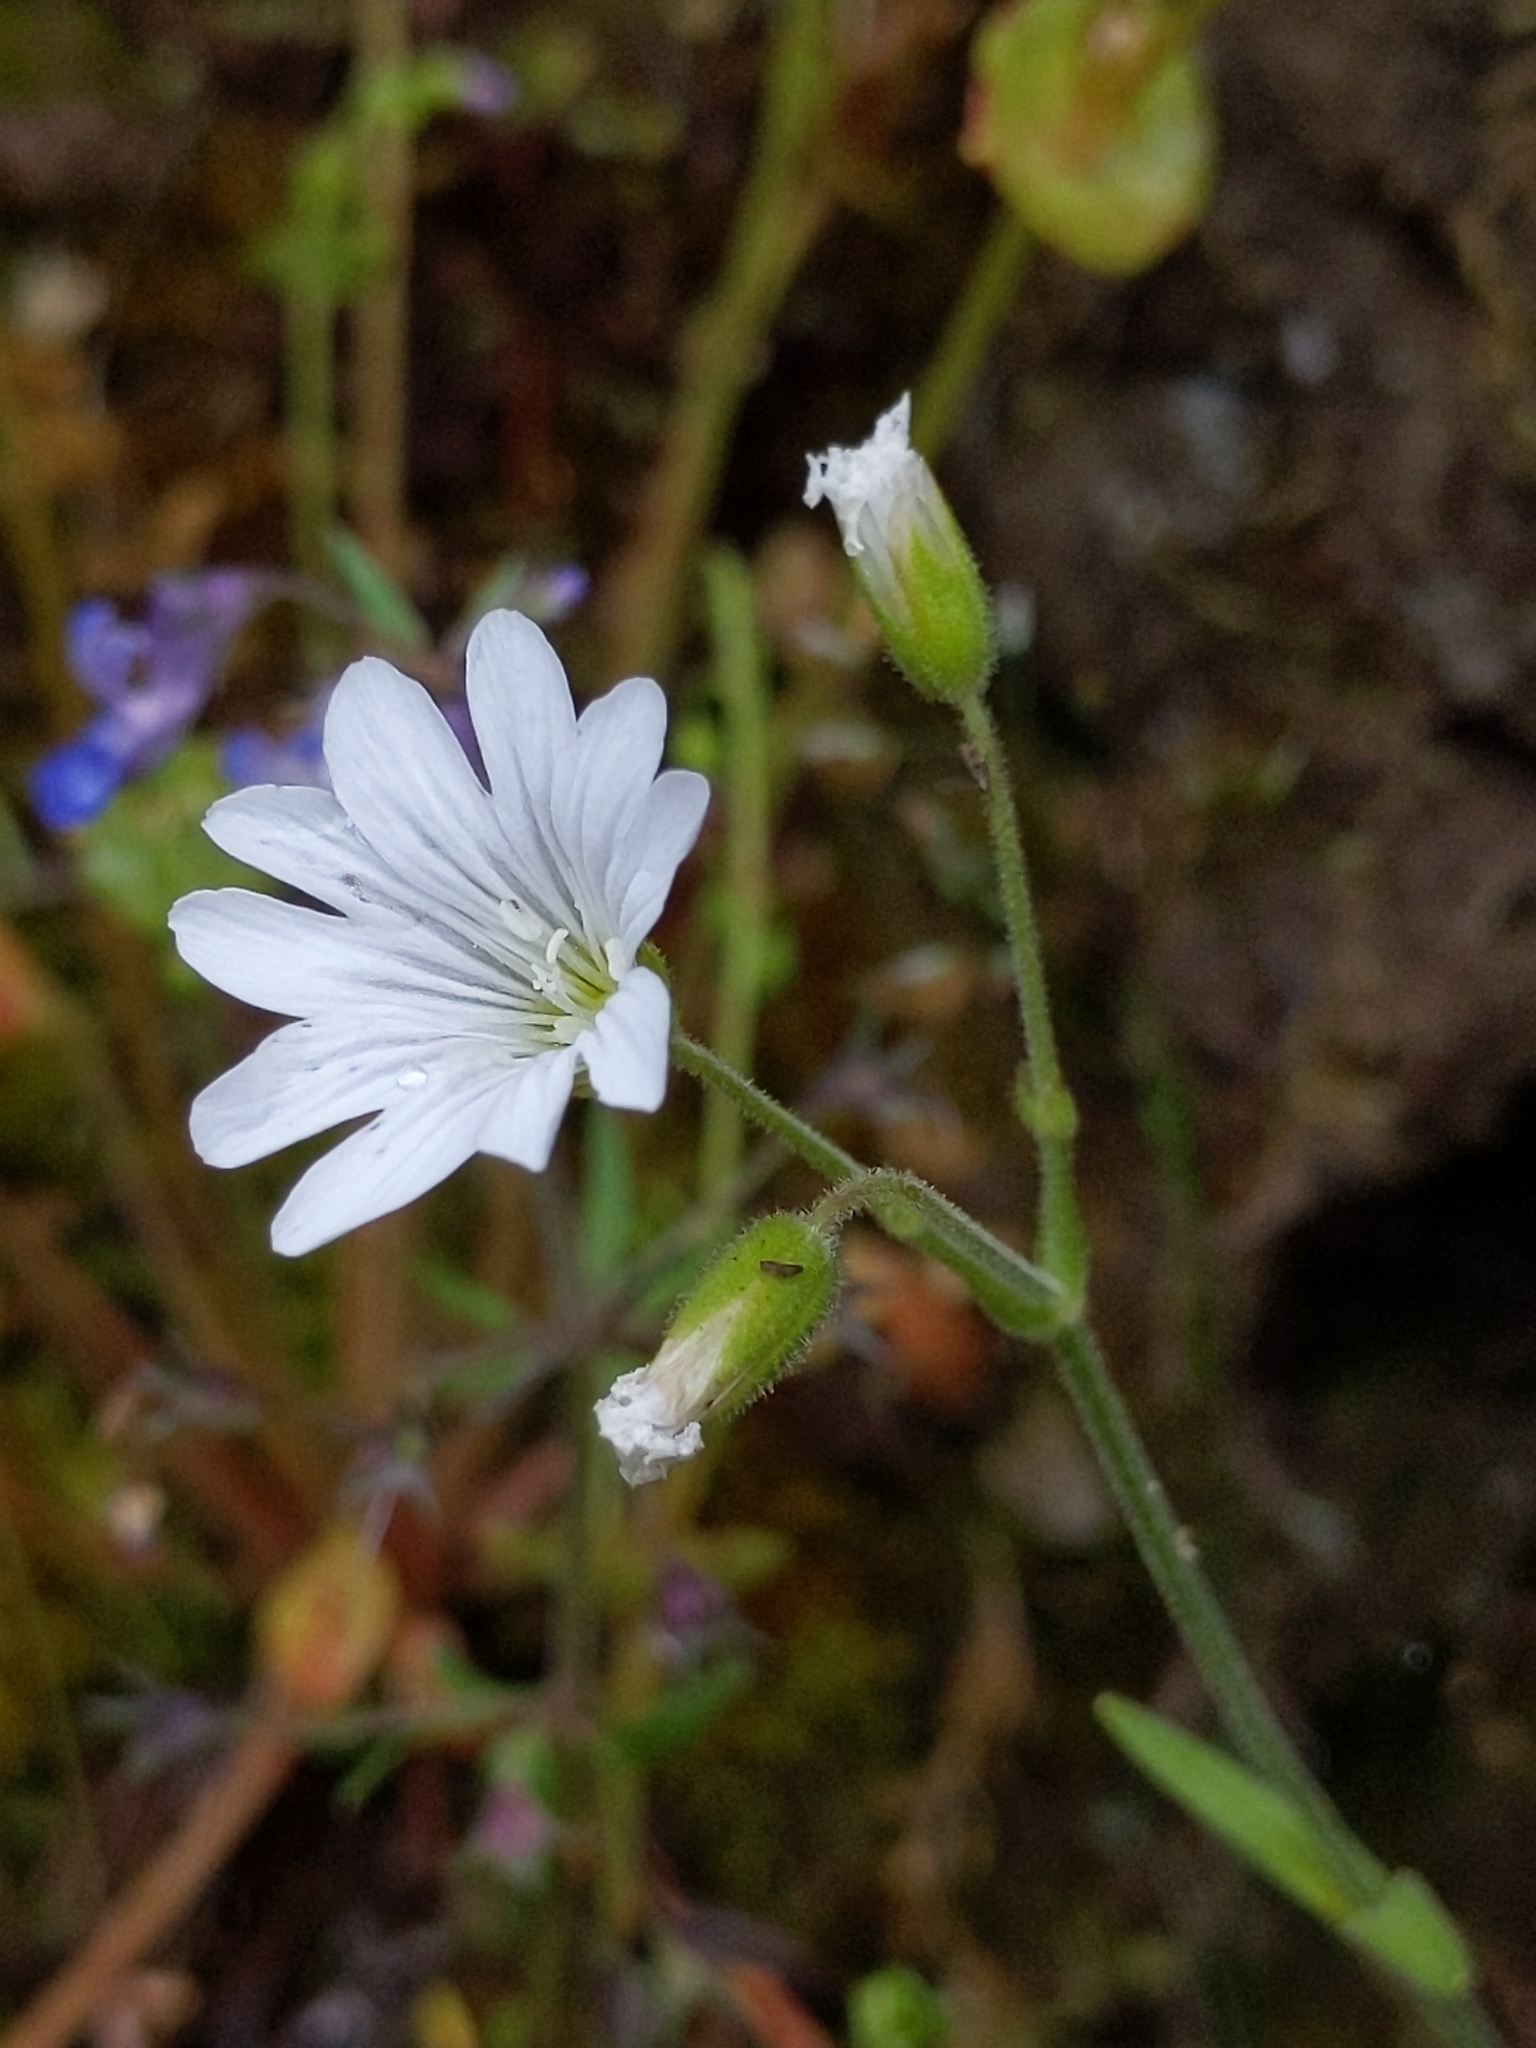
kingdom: Plantae
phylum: Tracheophyta
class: Magnoliopsida
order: Caryophyllales
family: Caryophyllaceae
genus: Cerastium
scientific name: Cerastium arvense
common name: Field mouse-ear
